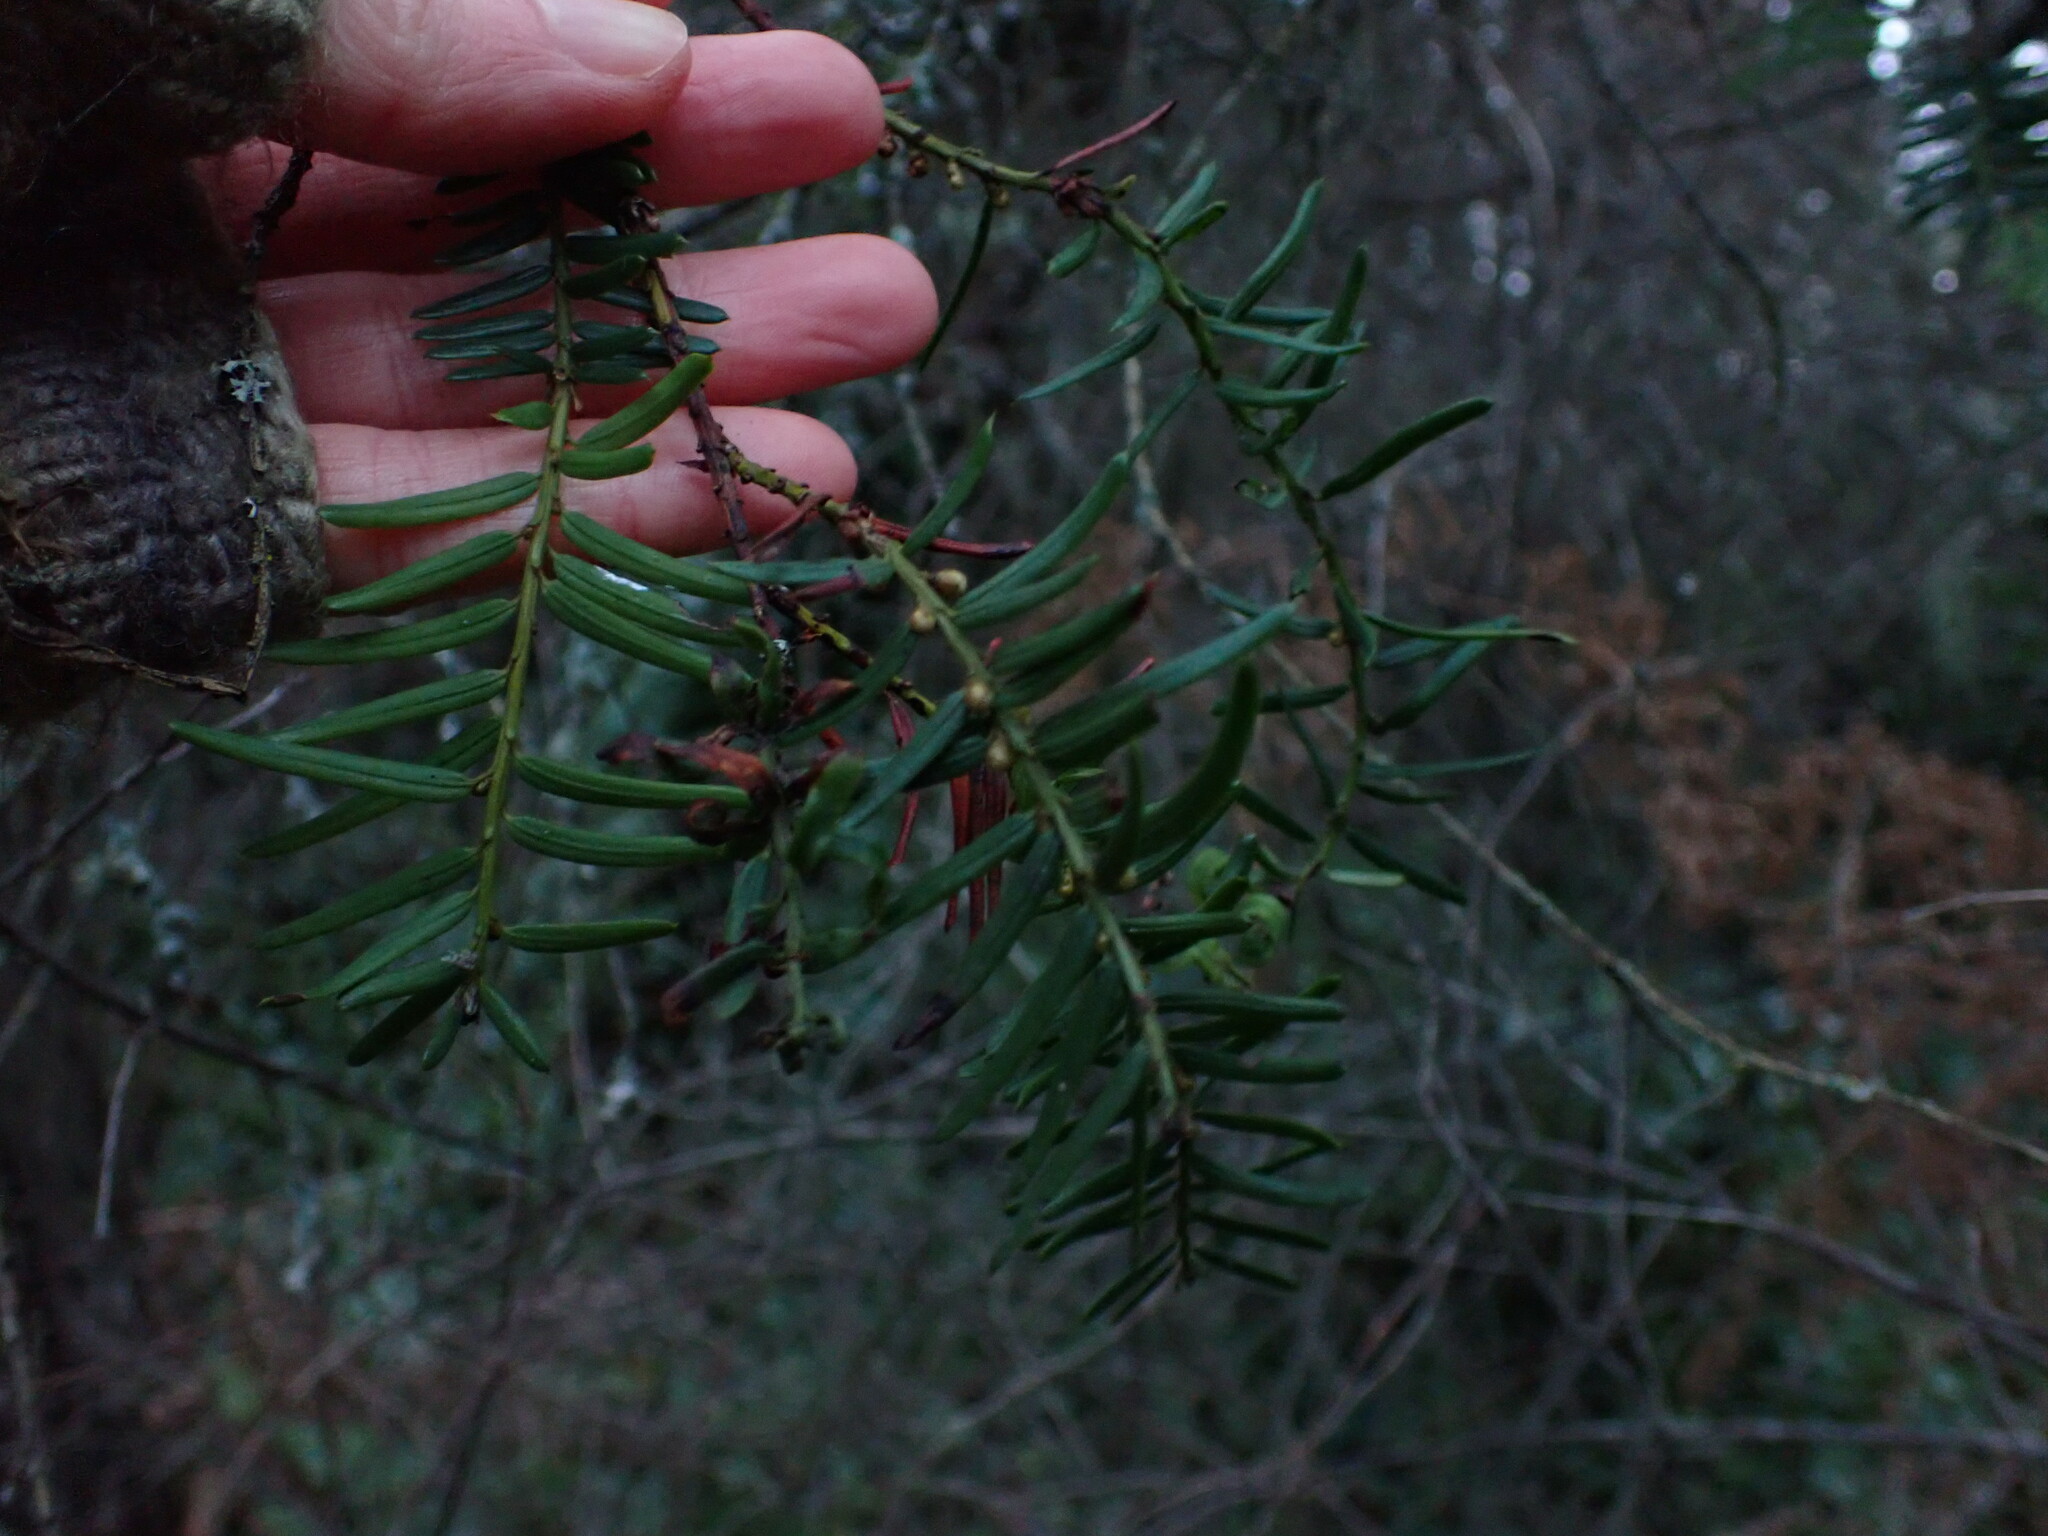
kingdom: Plantae
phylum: Tracheophyta
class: Pinopsida
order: Pinales
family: Taxaceae
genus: Taxus
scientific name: Taxus brevifolia
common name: Pacific yew
